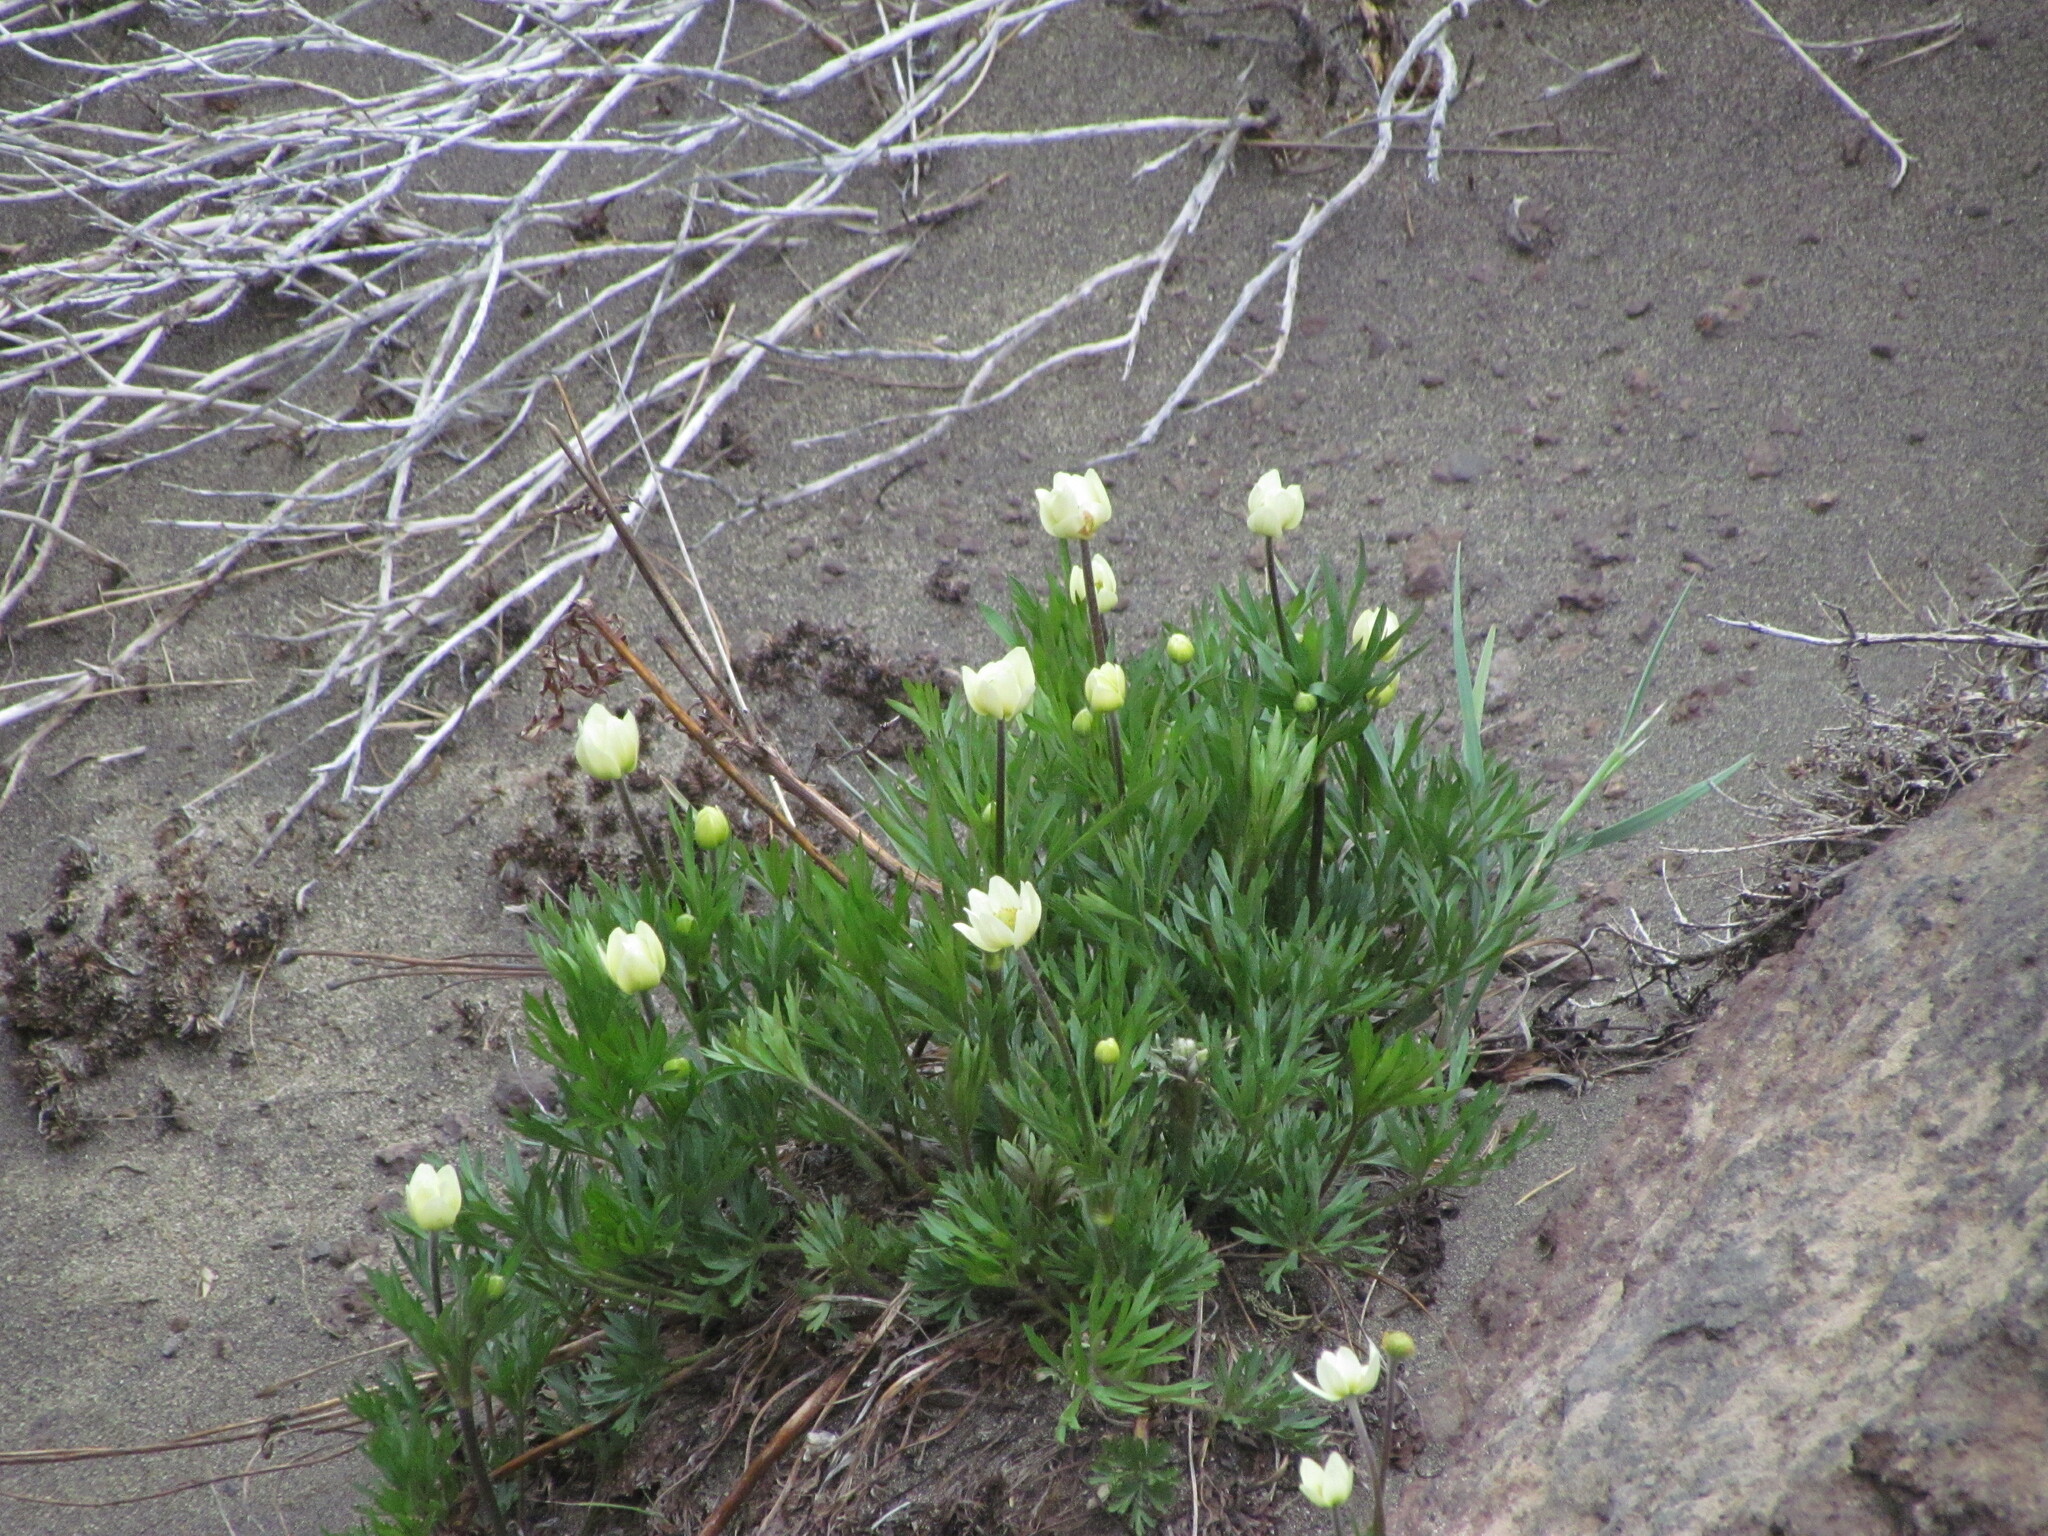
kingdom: Plantae
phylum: Tracheophyta
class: Magnoliopsida
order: Ranunculales
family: Ranunculaceae
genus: Anemone
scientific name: Anemone multifida
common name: Bird's-foot anemone
